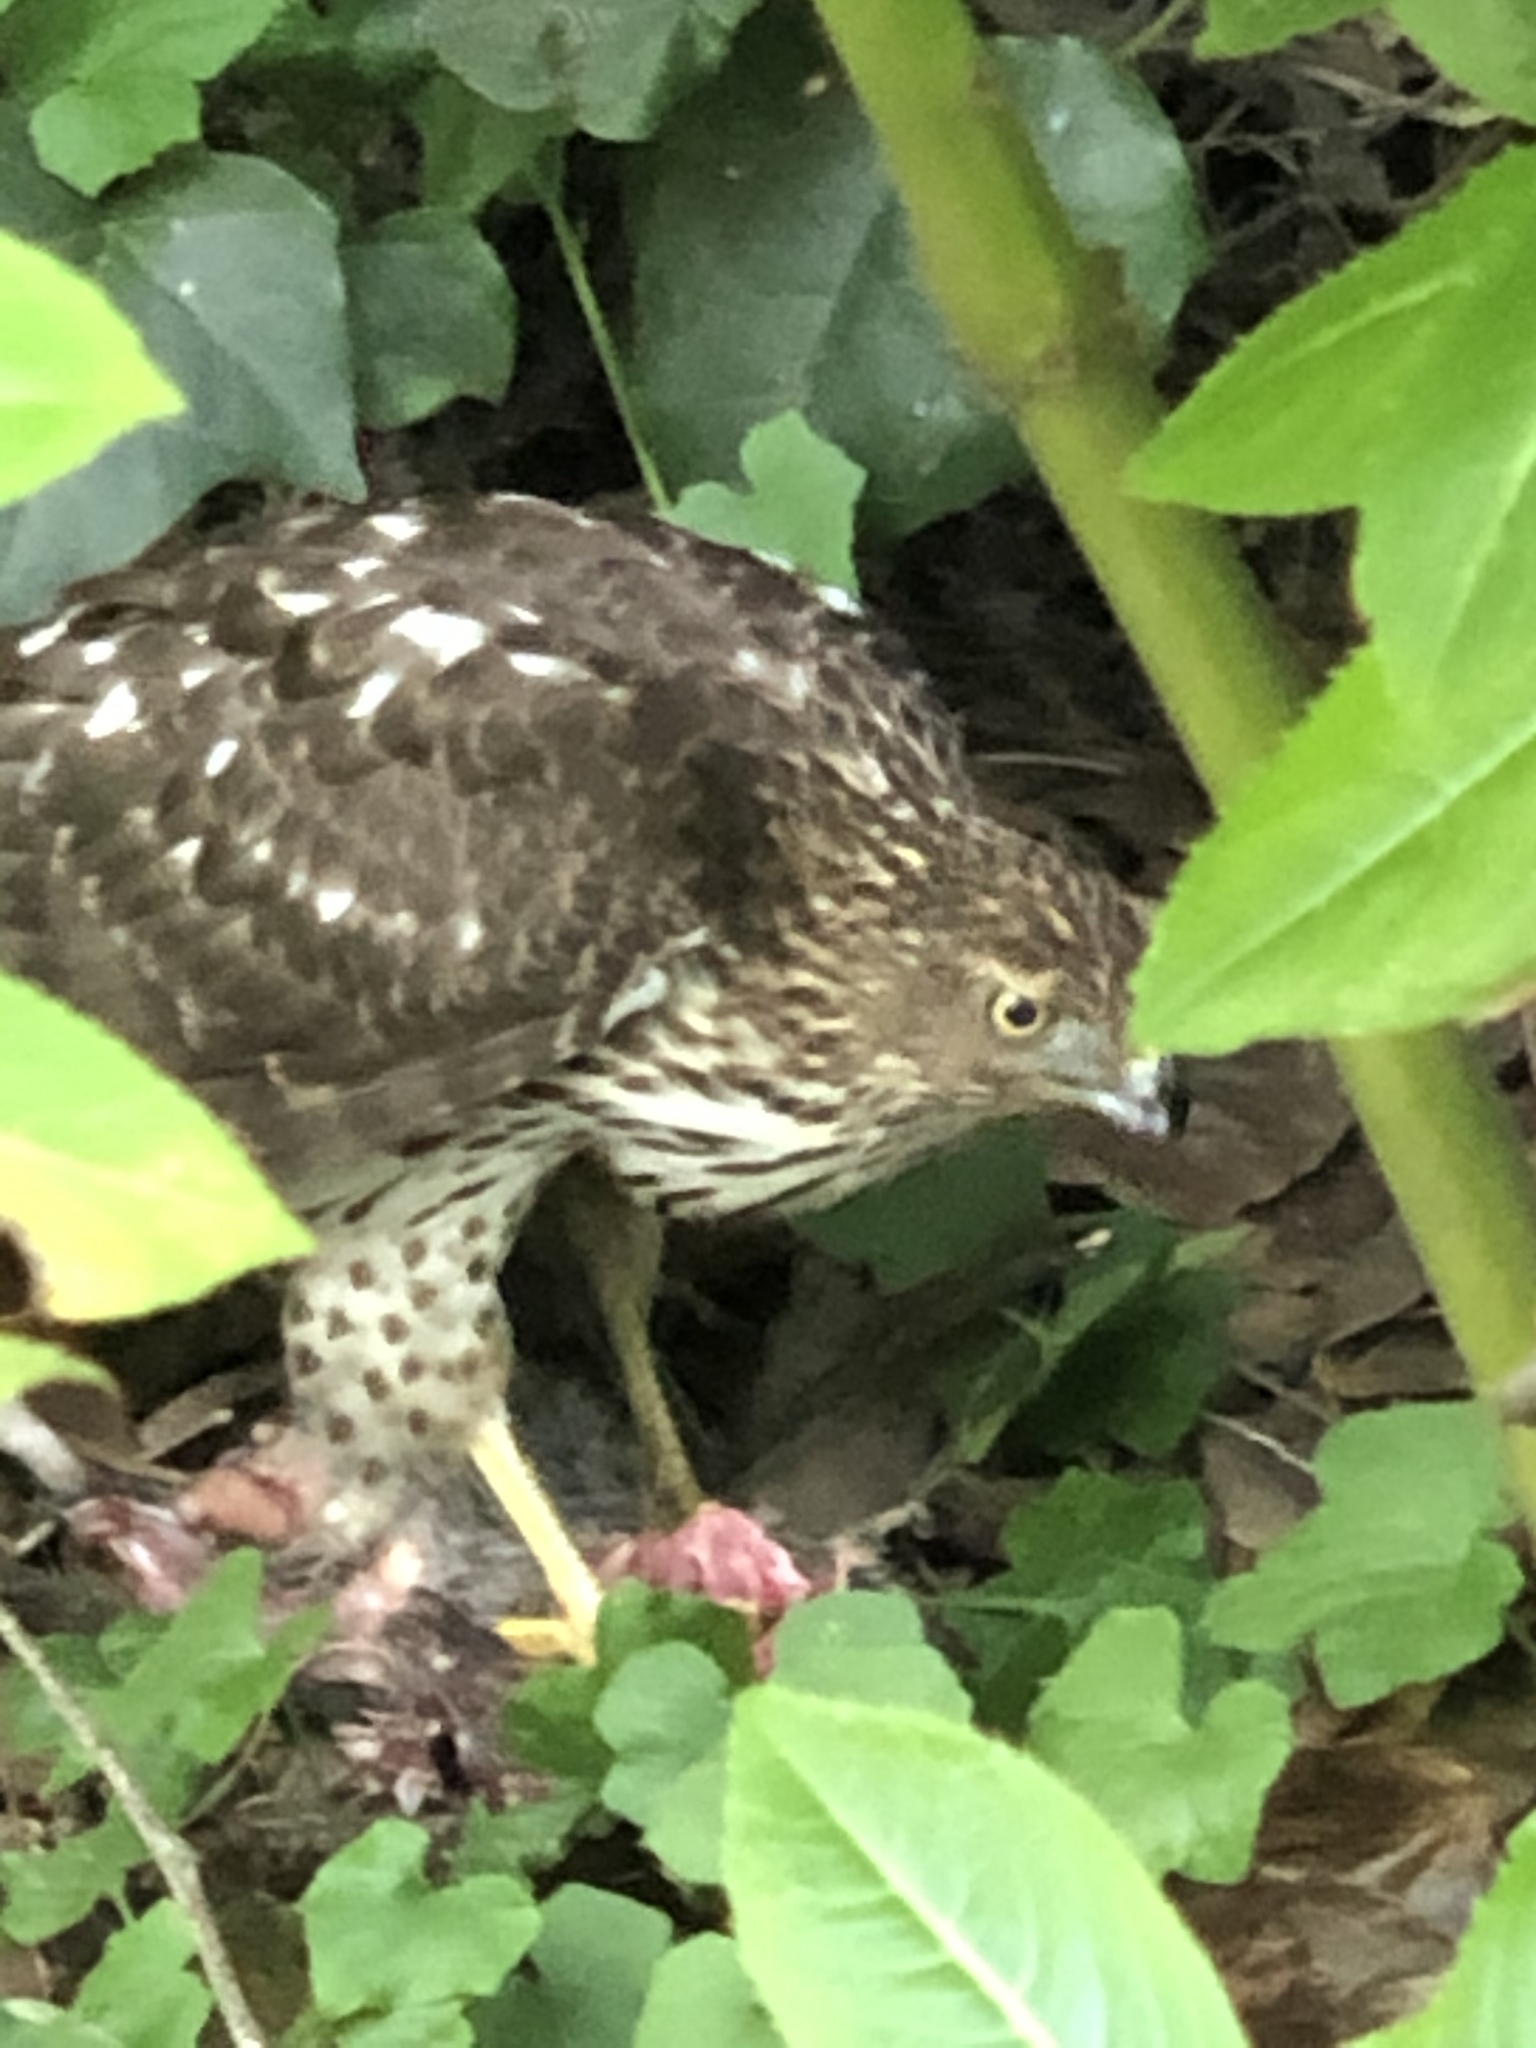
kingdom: Animalia
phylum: Chordata
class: Aves
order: Accipitriformes
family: Accipitridae
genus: Accipiter
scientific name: Accipiter cooperii
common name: Cooper's hawk
